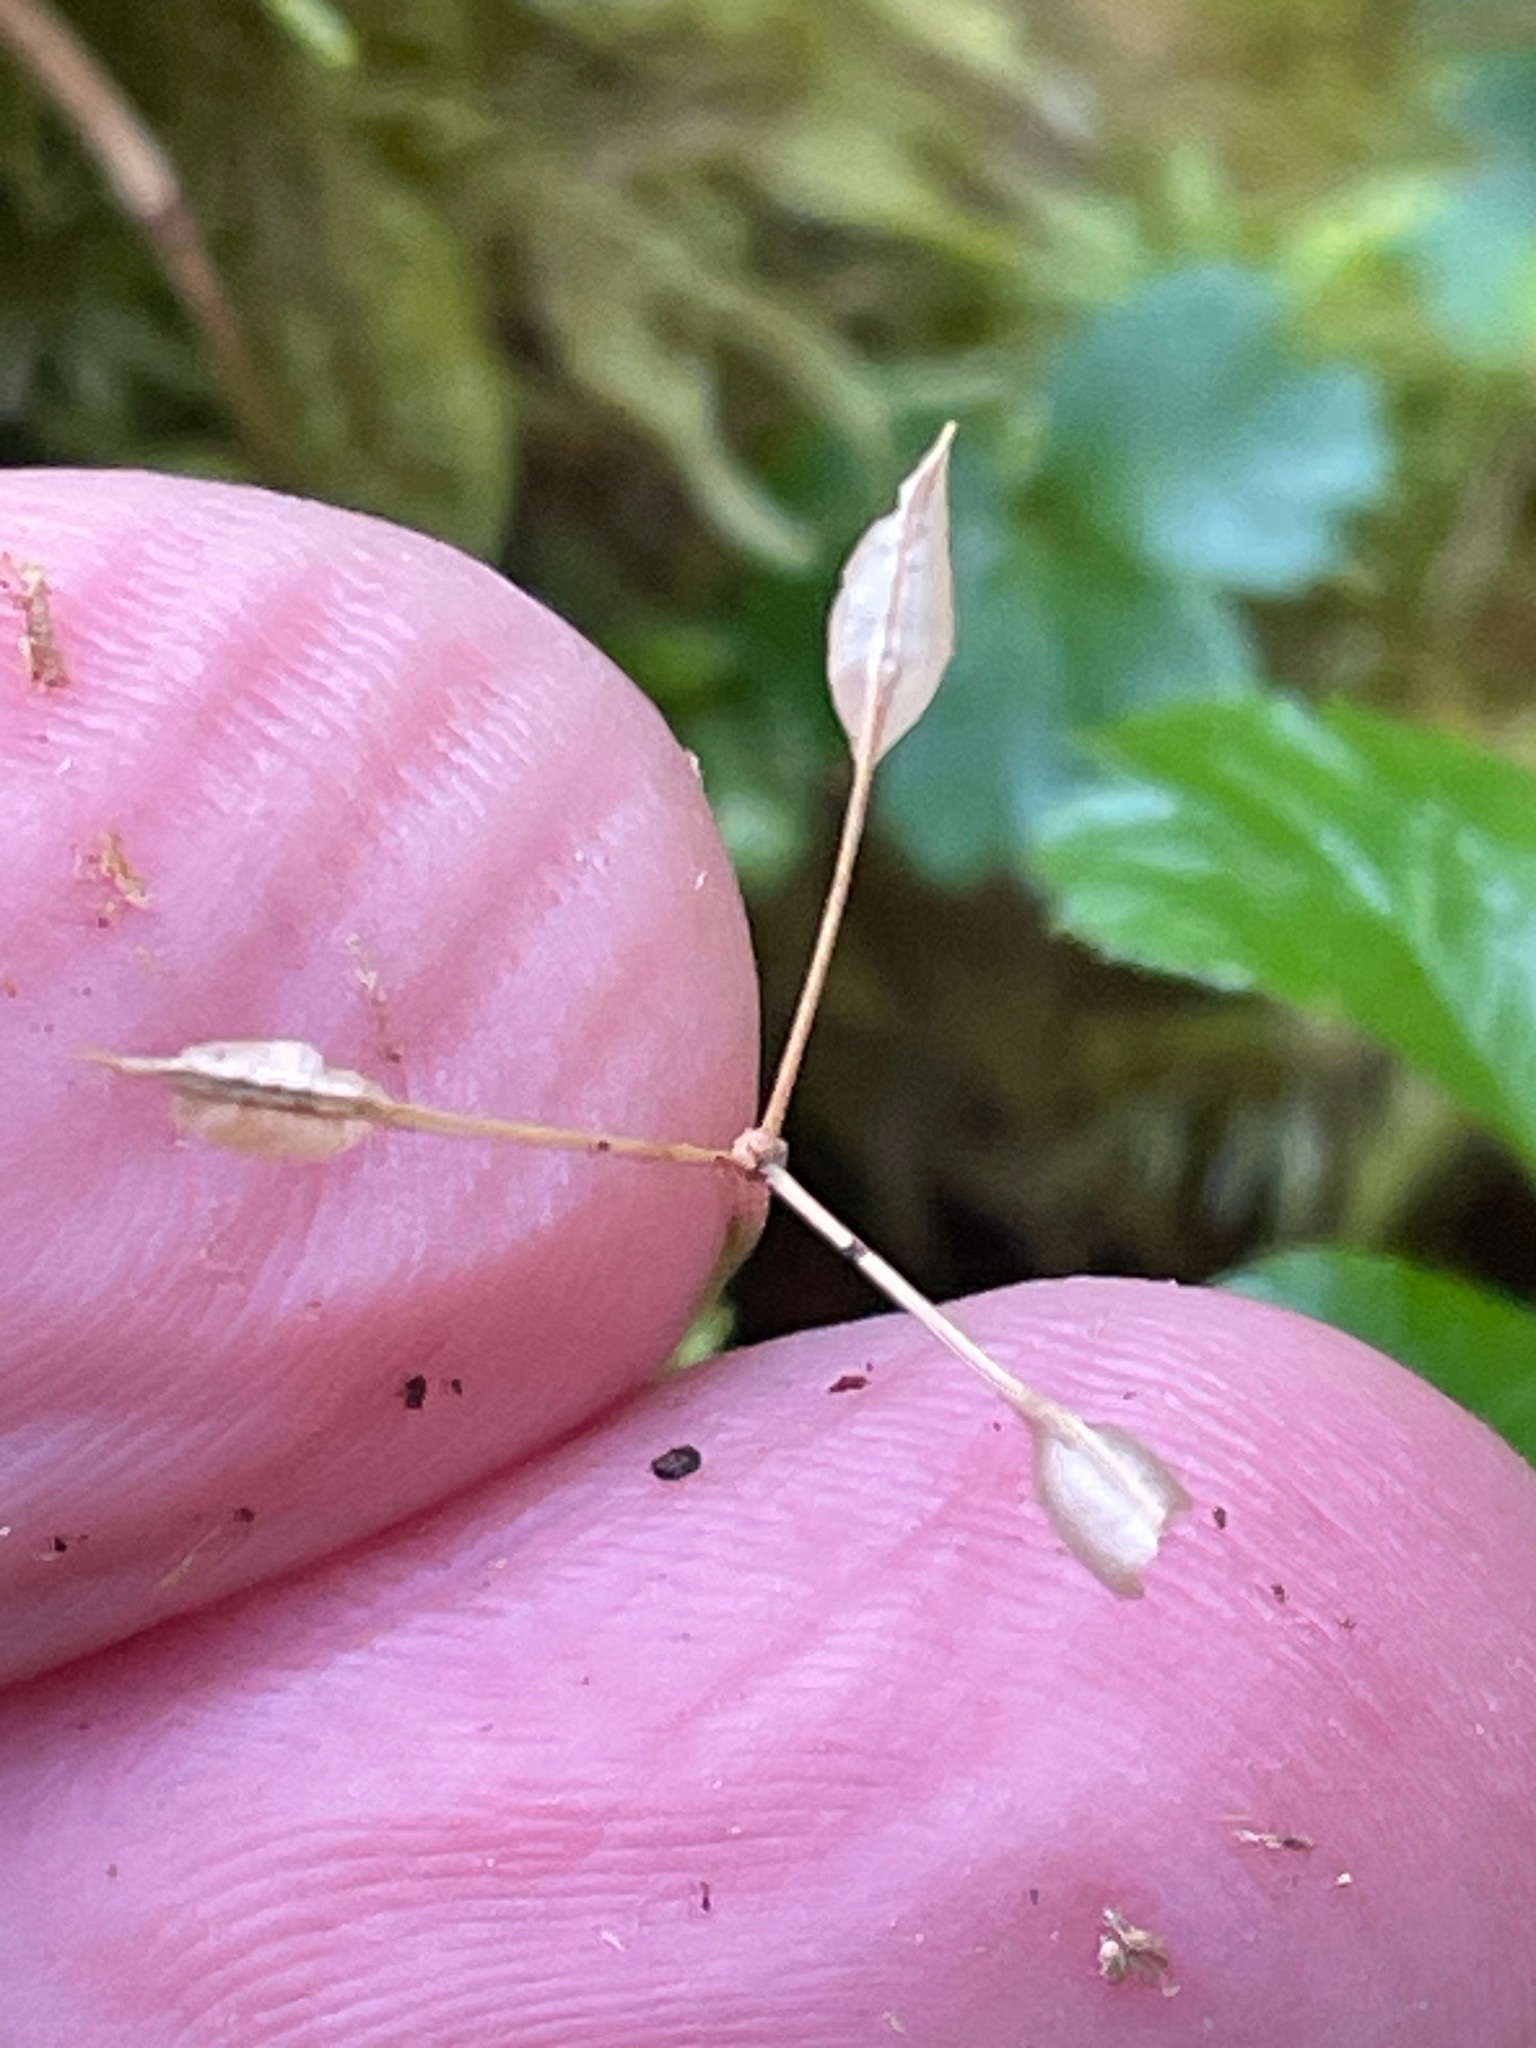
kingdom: Plantae
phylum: Tracheophyta
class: Magnoliopsida
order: Ranunculales
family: Ranunculaceae
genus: Coptis
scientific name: Coptis trifolia
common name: Canker-root
